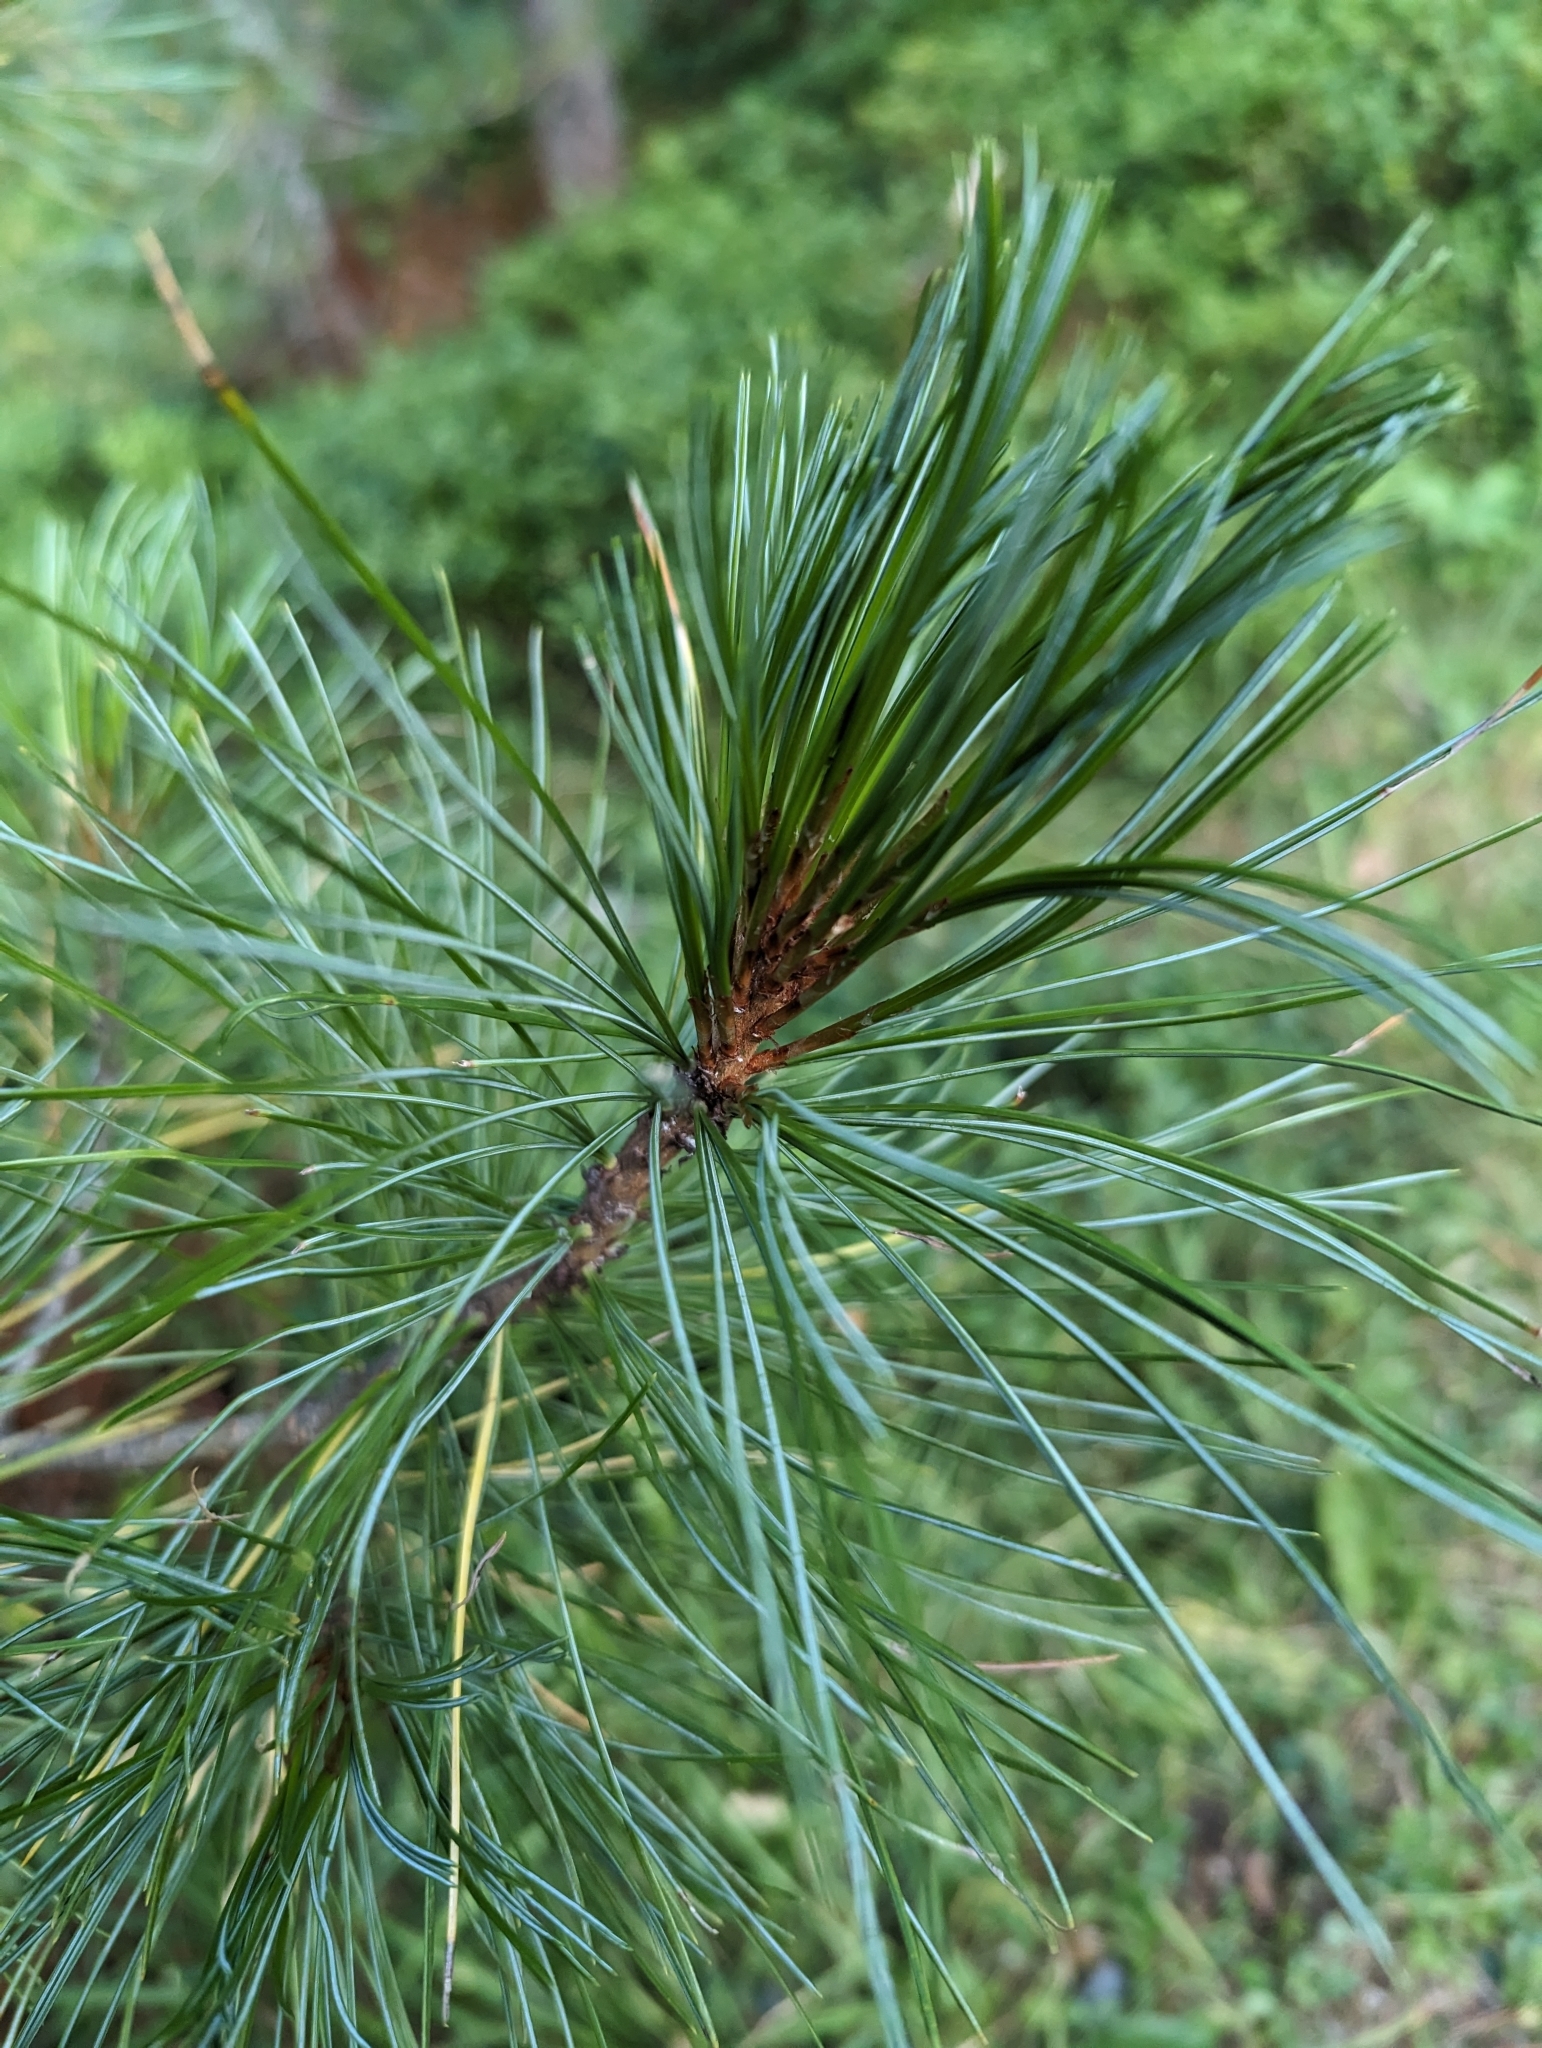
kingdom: Plantae
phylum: Tracheophyta
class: Pinopsida
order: Pinales
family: Pinaceae
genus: Pinus
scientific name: Pinus cembra
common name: Arolla pine
